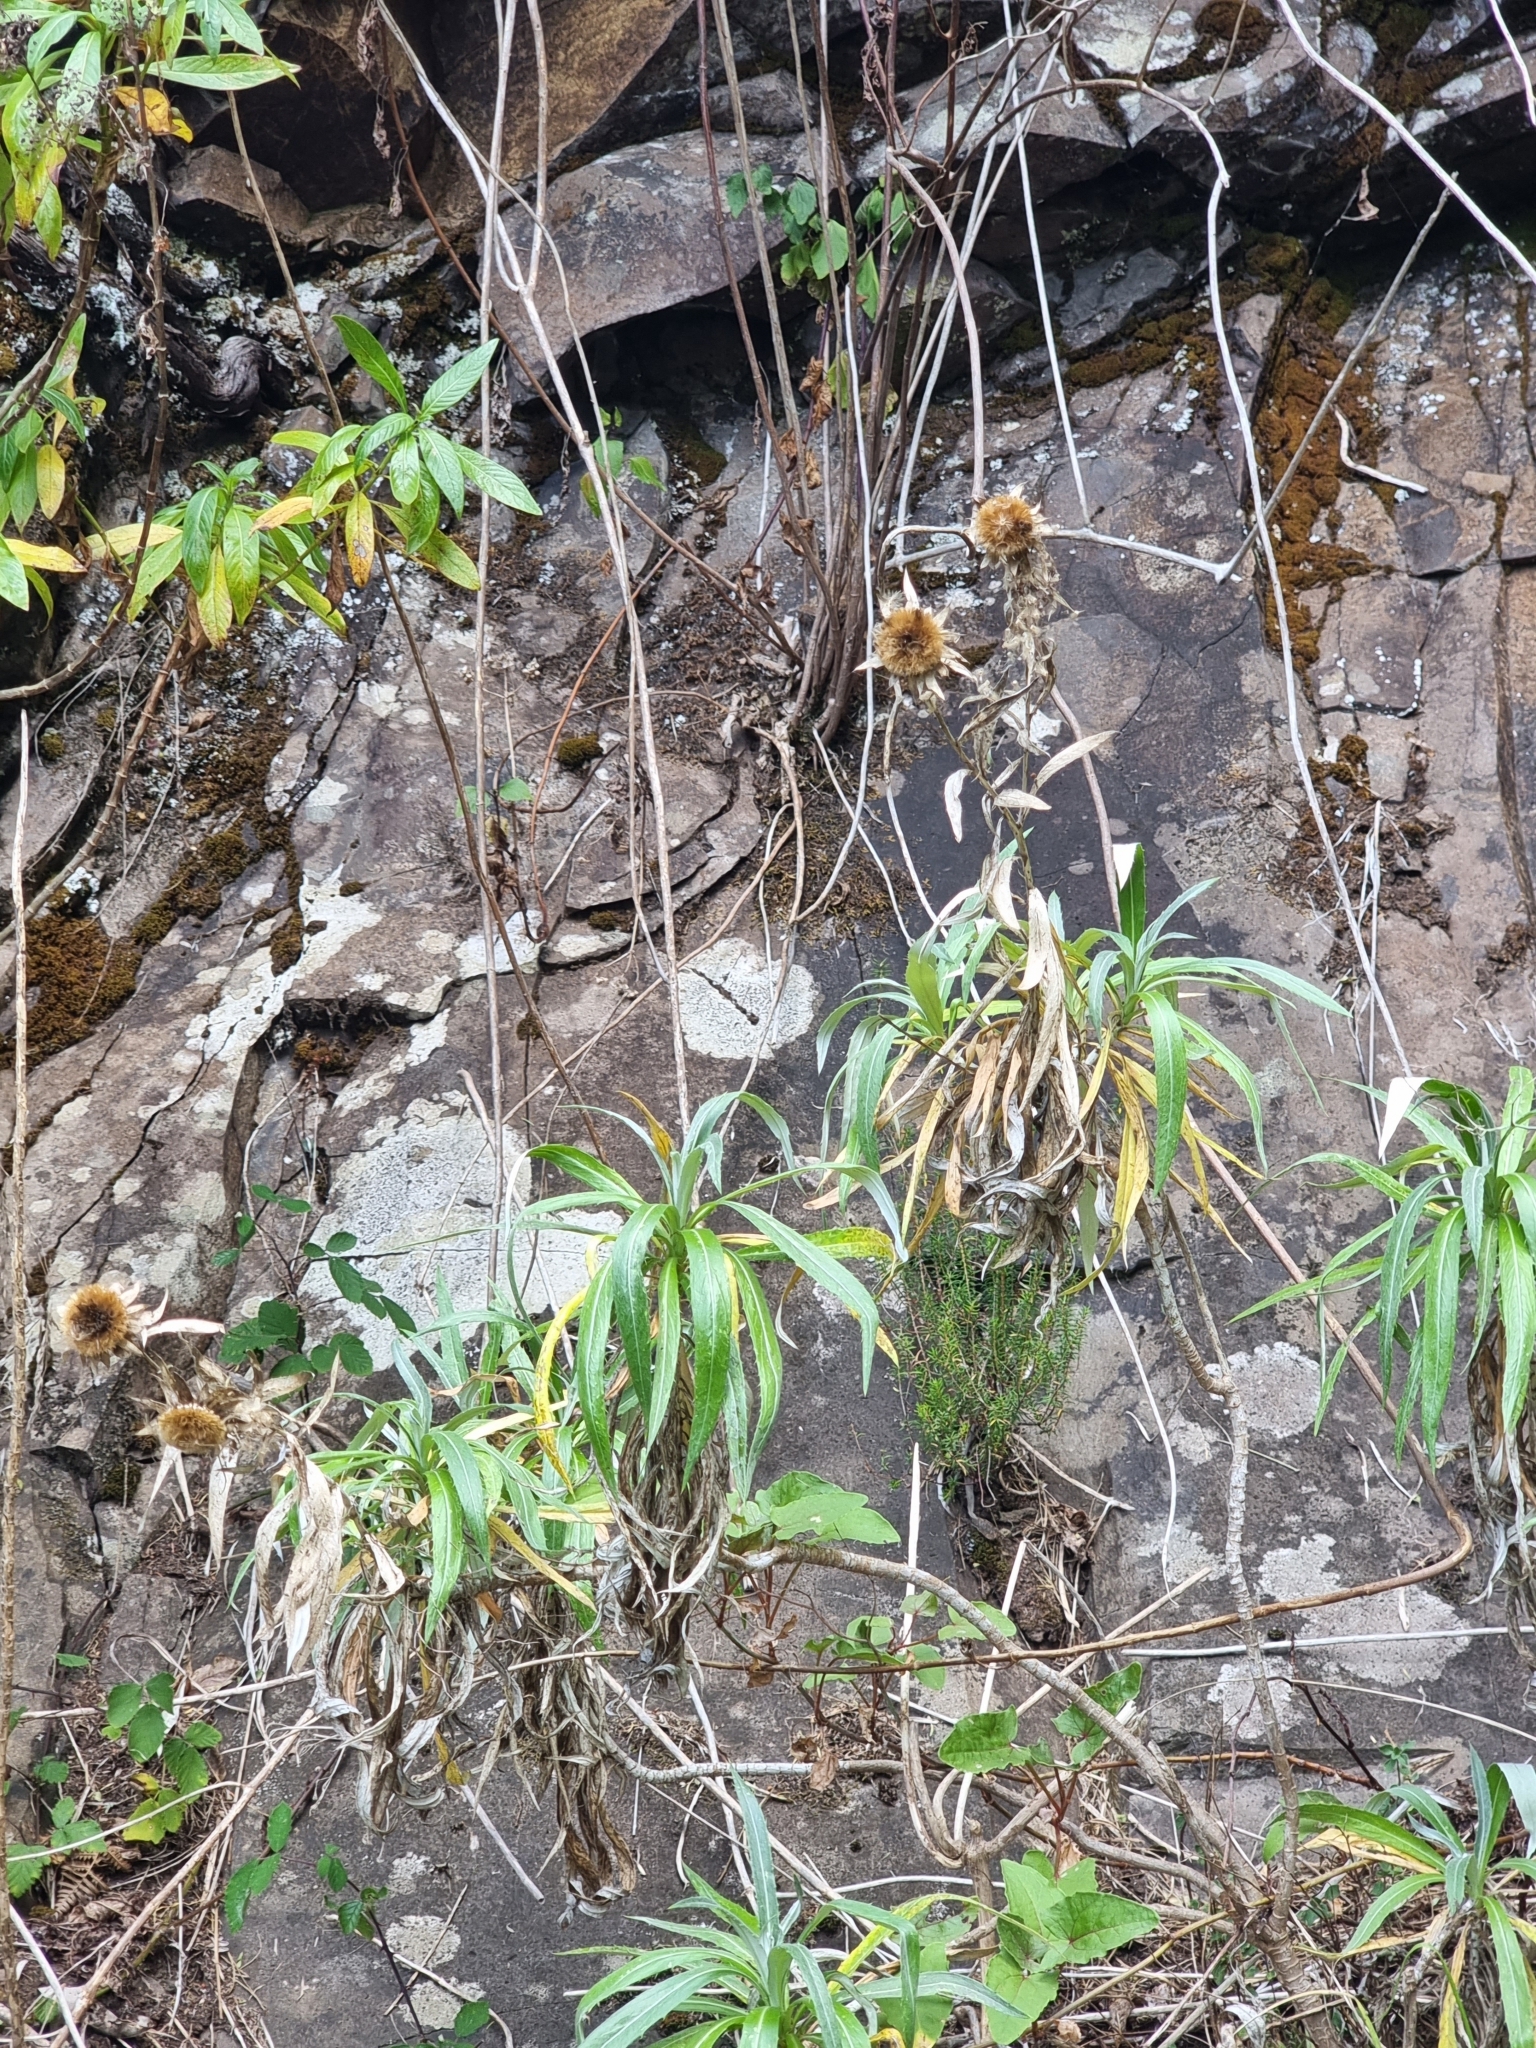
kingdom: Plantae
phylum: Tracheophyta
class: Magnoliopsida
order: Asterales
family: Asteraceae
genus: Carlina
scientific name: Carlina salicifolia
